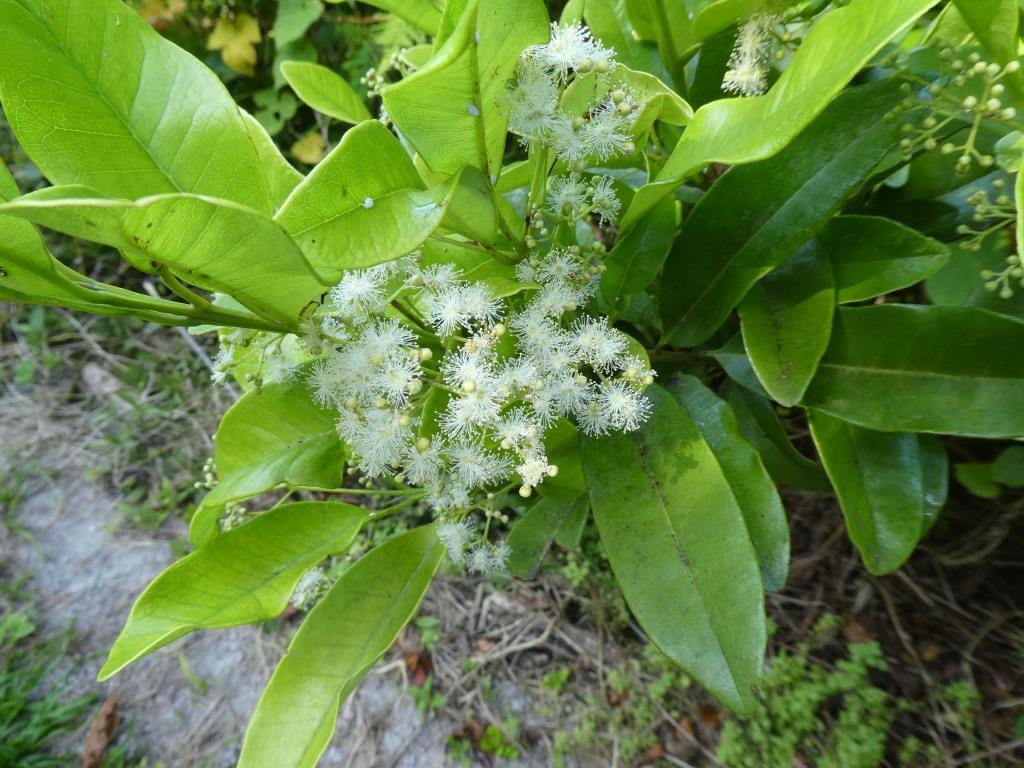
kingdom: Plantae
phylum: Tracheophyta
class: Magnoliopsida
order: Myrtales
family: Myrtaceae
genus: Pimenta
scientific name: Pimenta dioica
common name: Allspice
